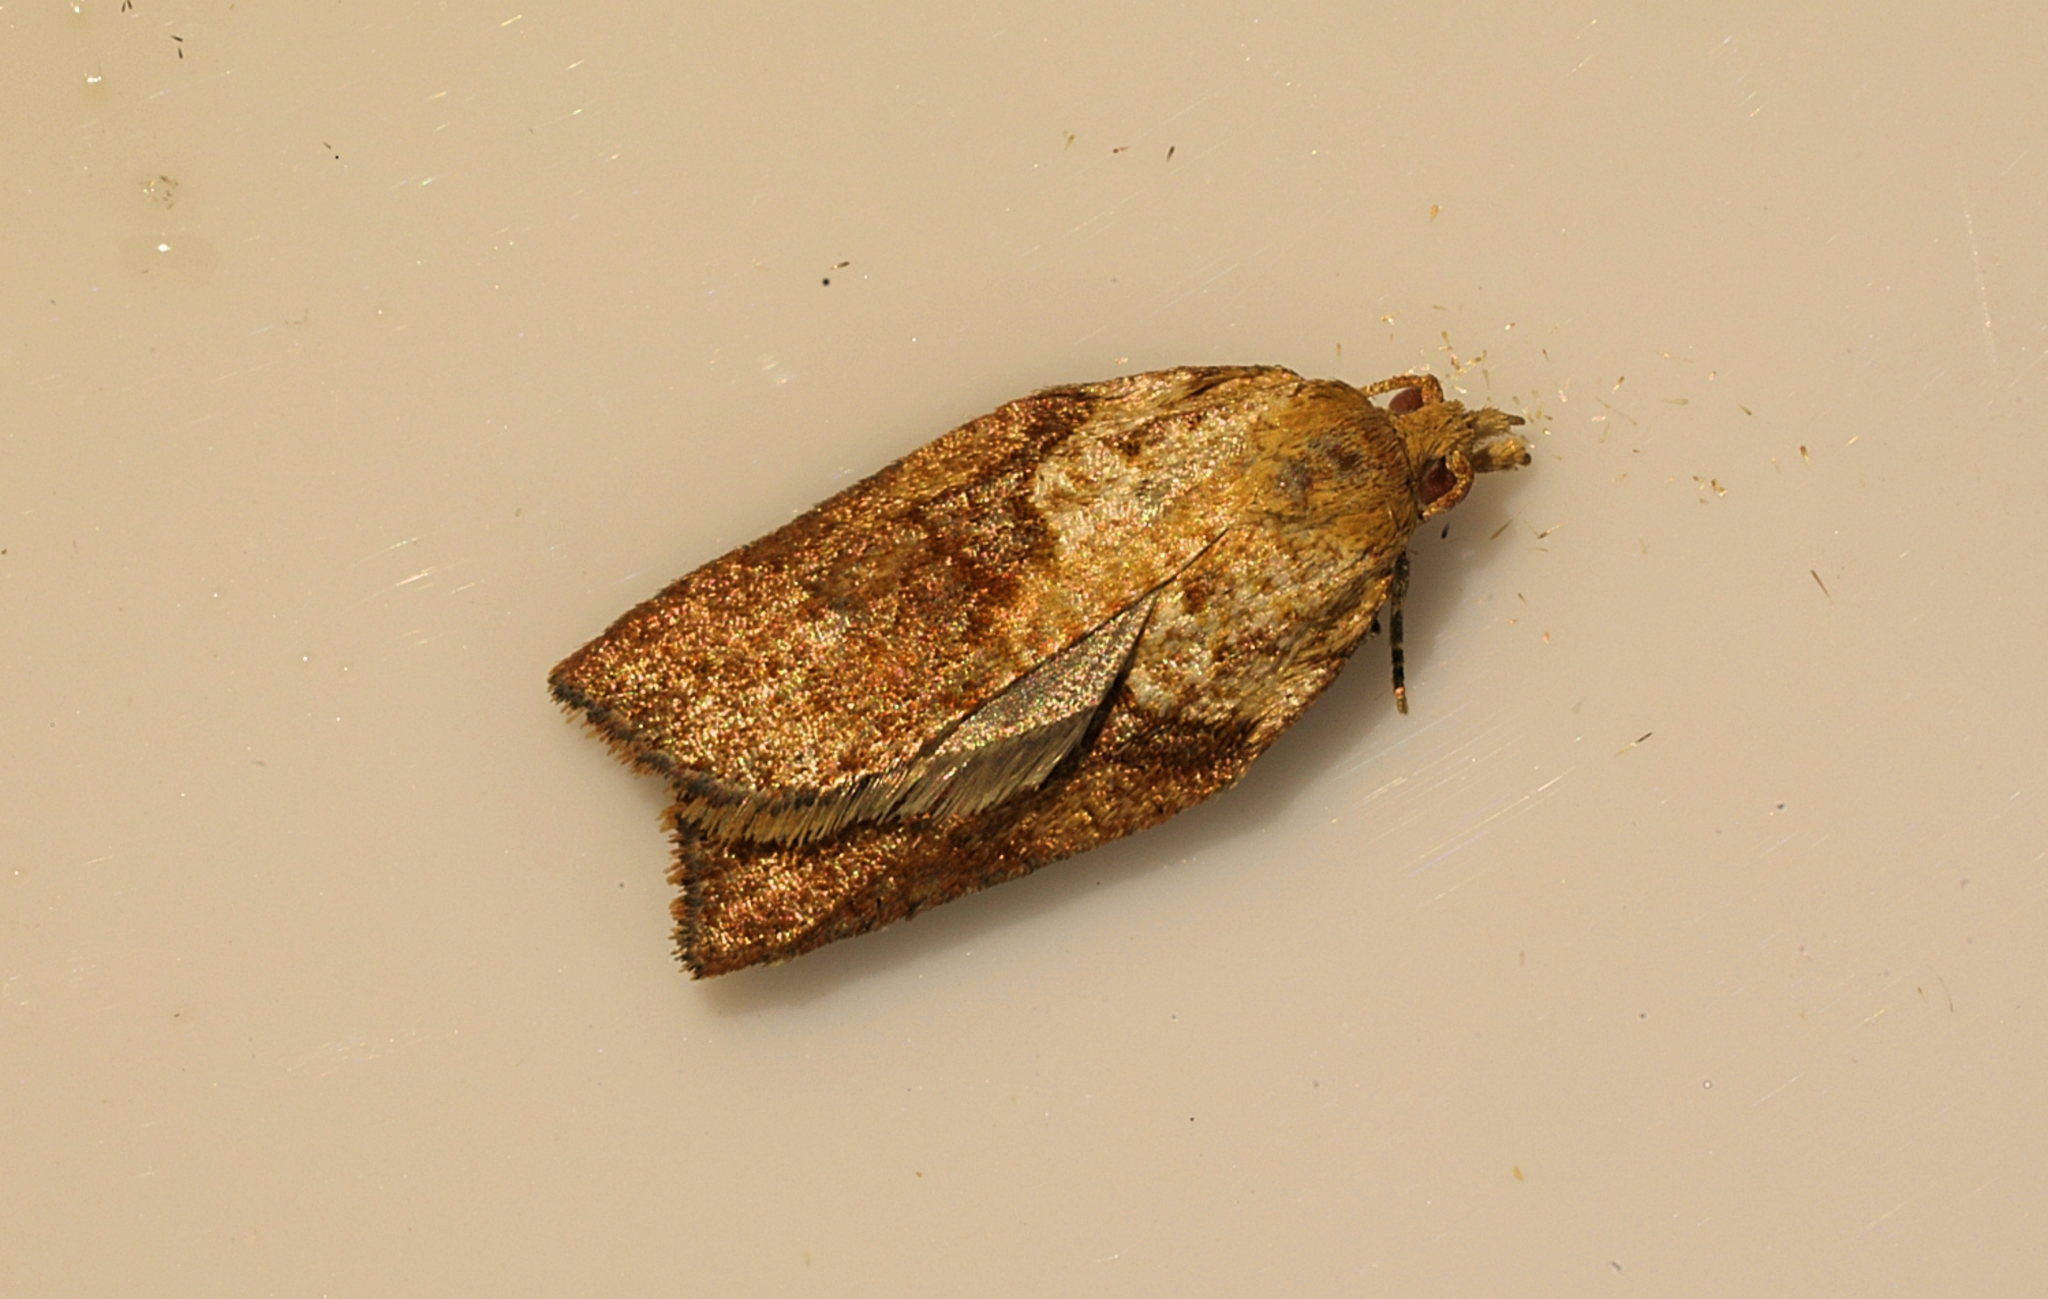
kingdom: Animalia
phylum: Arthropoda
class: Insecta
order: Lepidoptera
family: Tortricidae
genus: Epiphyas
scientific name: Epiphyas postvittana
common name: Light brown apple moth
